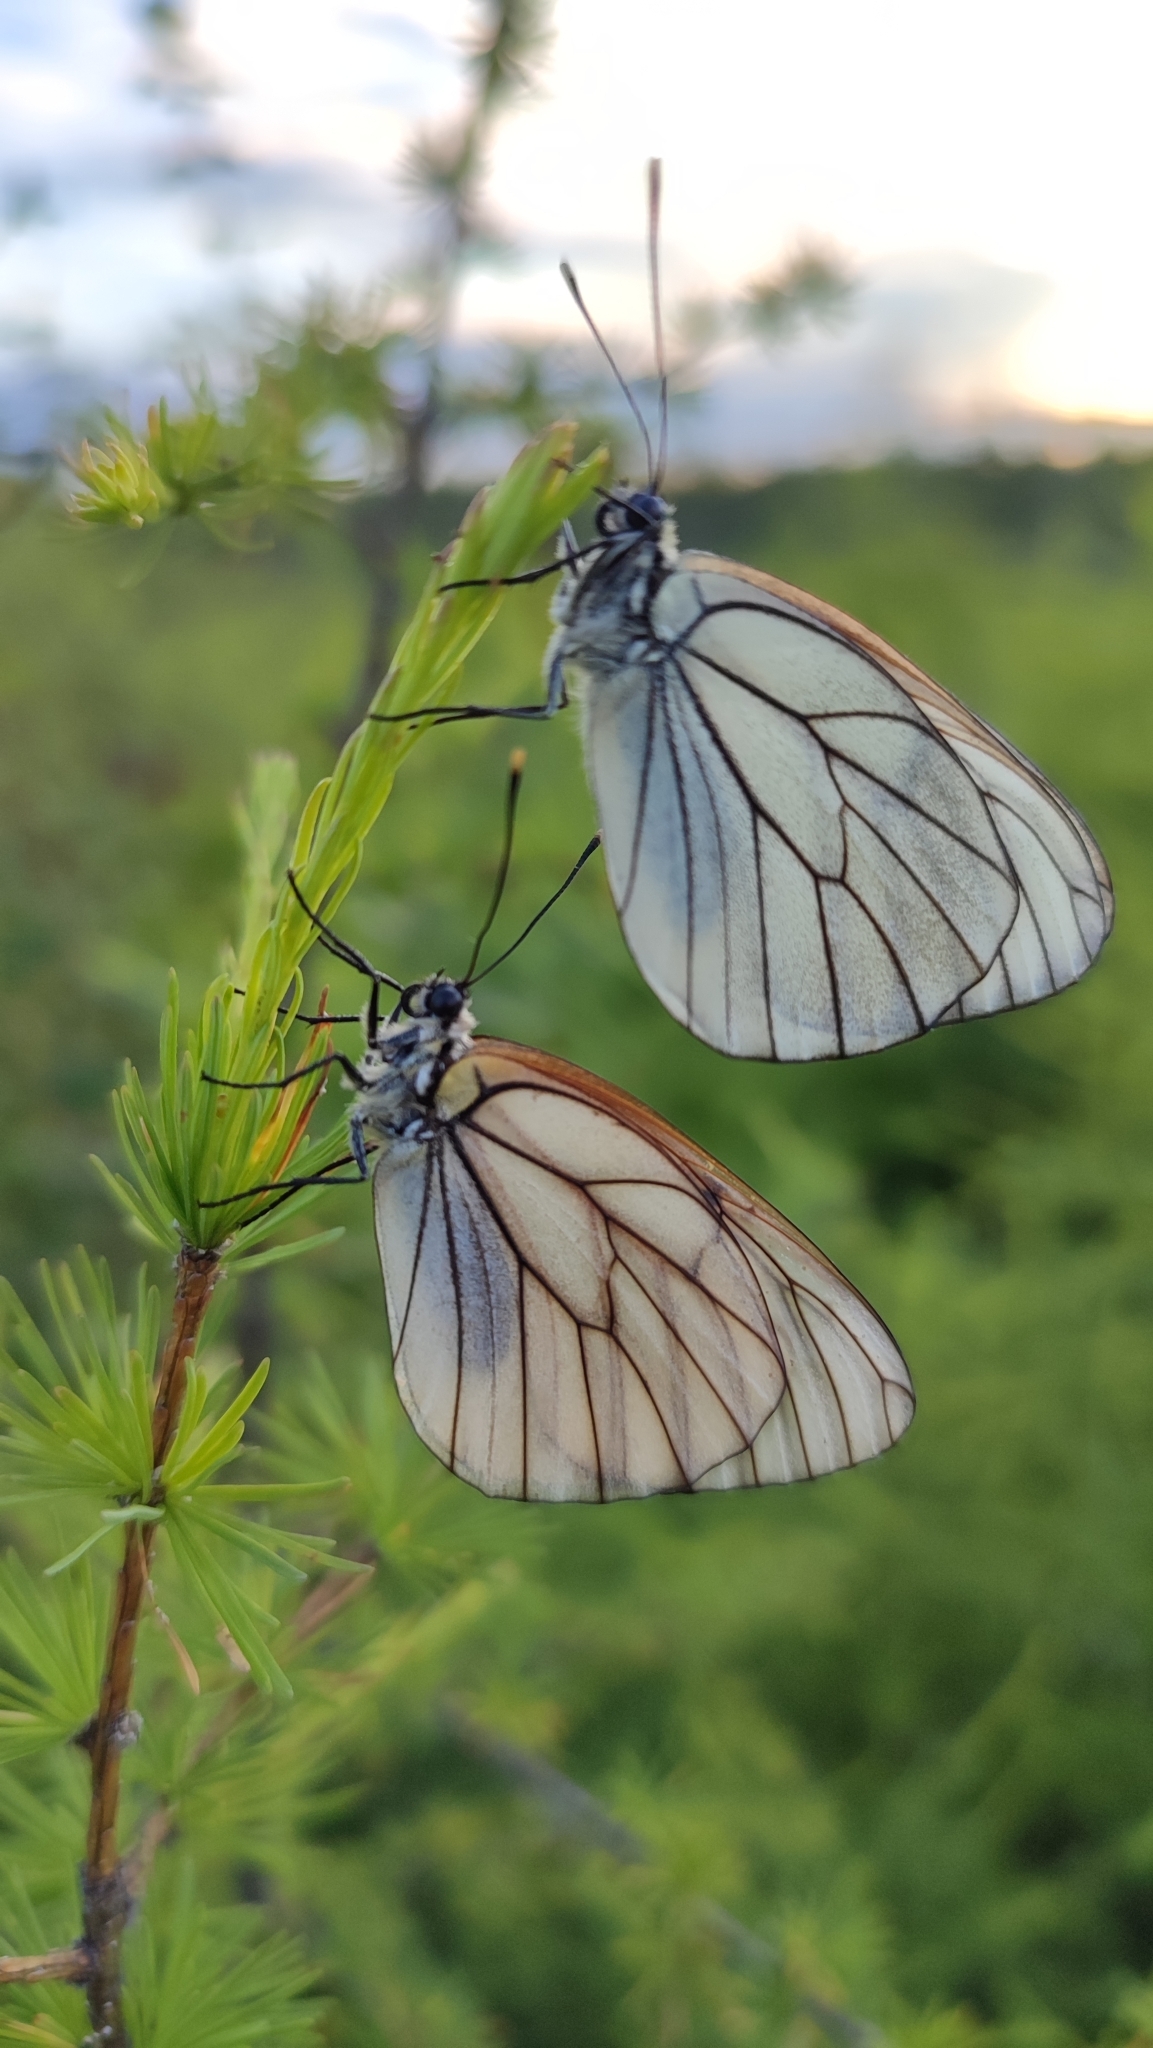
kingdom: Animalia
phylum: Arthropoda
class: Insecta
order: Lepidoptera
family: Pieridae
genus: Aporia
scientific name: Aporia crataegi
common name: Black-veined white
